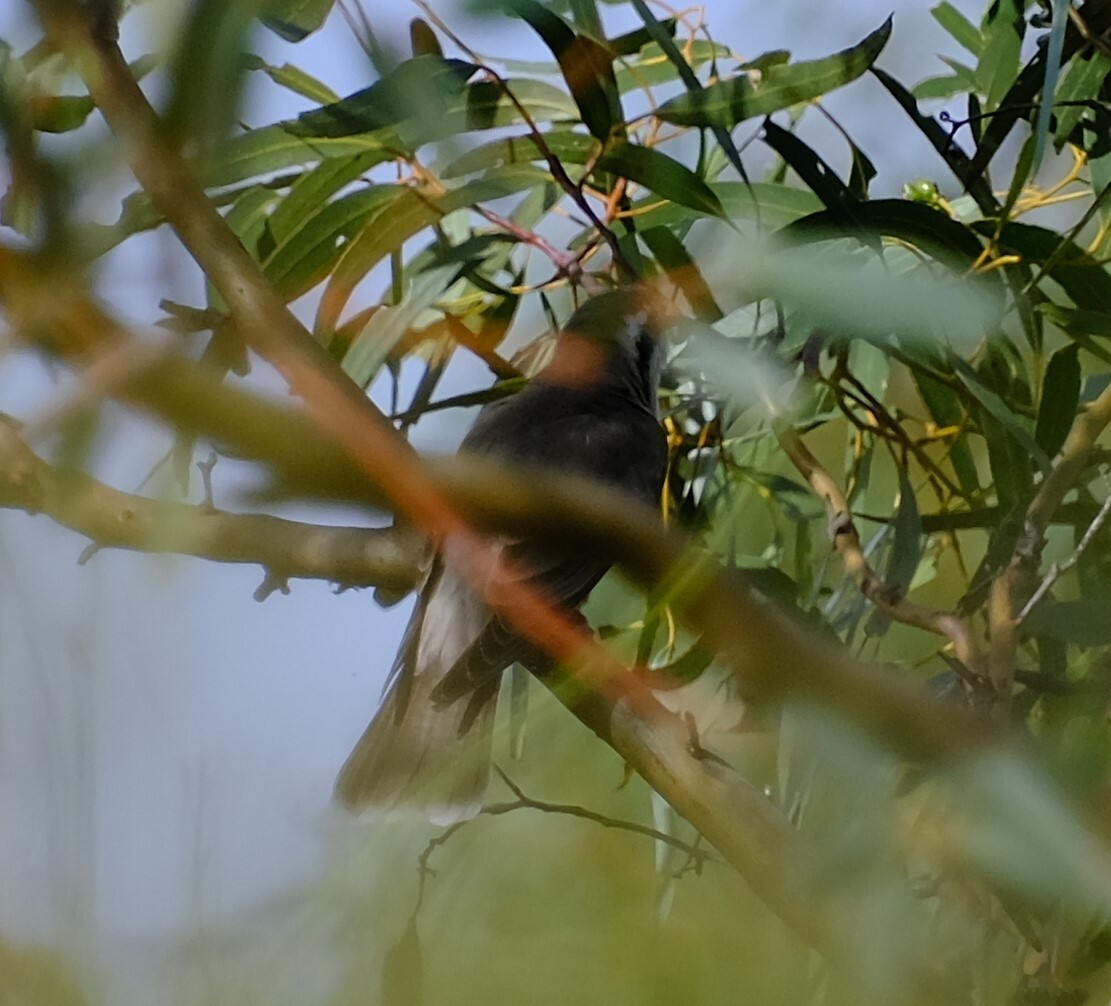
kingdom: Animalia
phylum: Chordata
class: Aves
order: Cuculiformes
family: Cuculidae
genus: Chrysococcyx
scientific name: Chrysococcyx osculans
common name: Black-eared cuckoo
